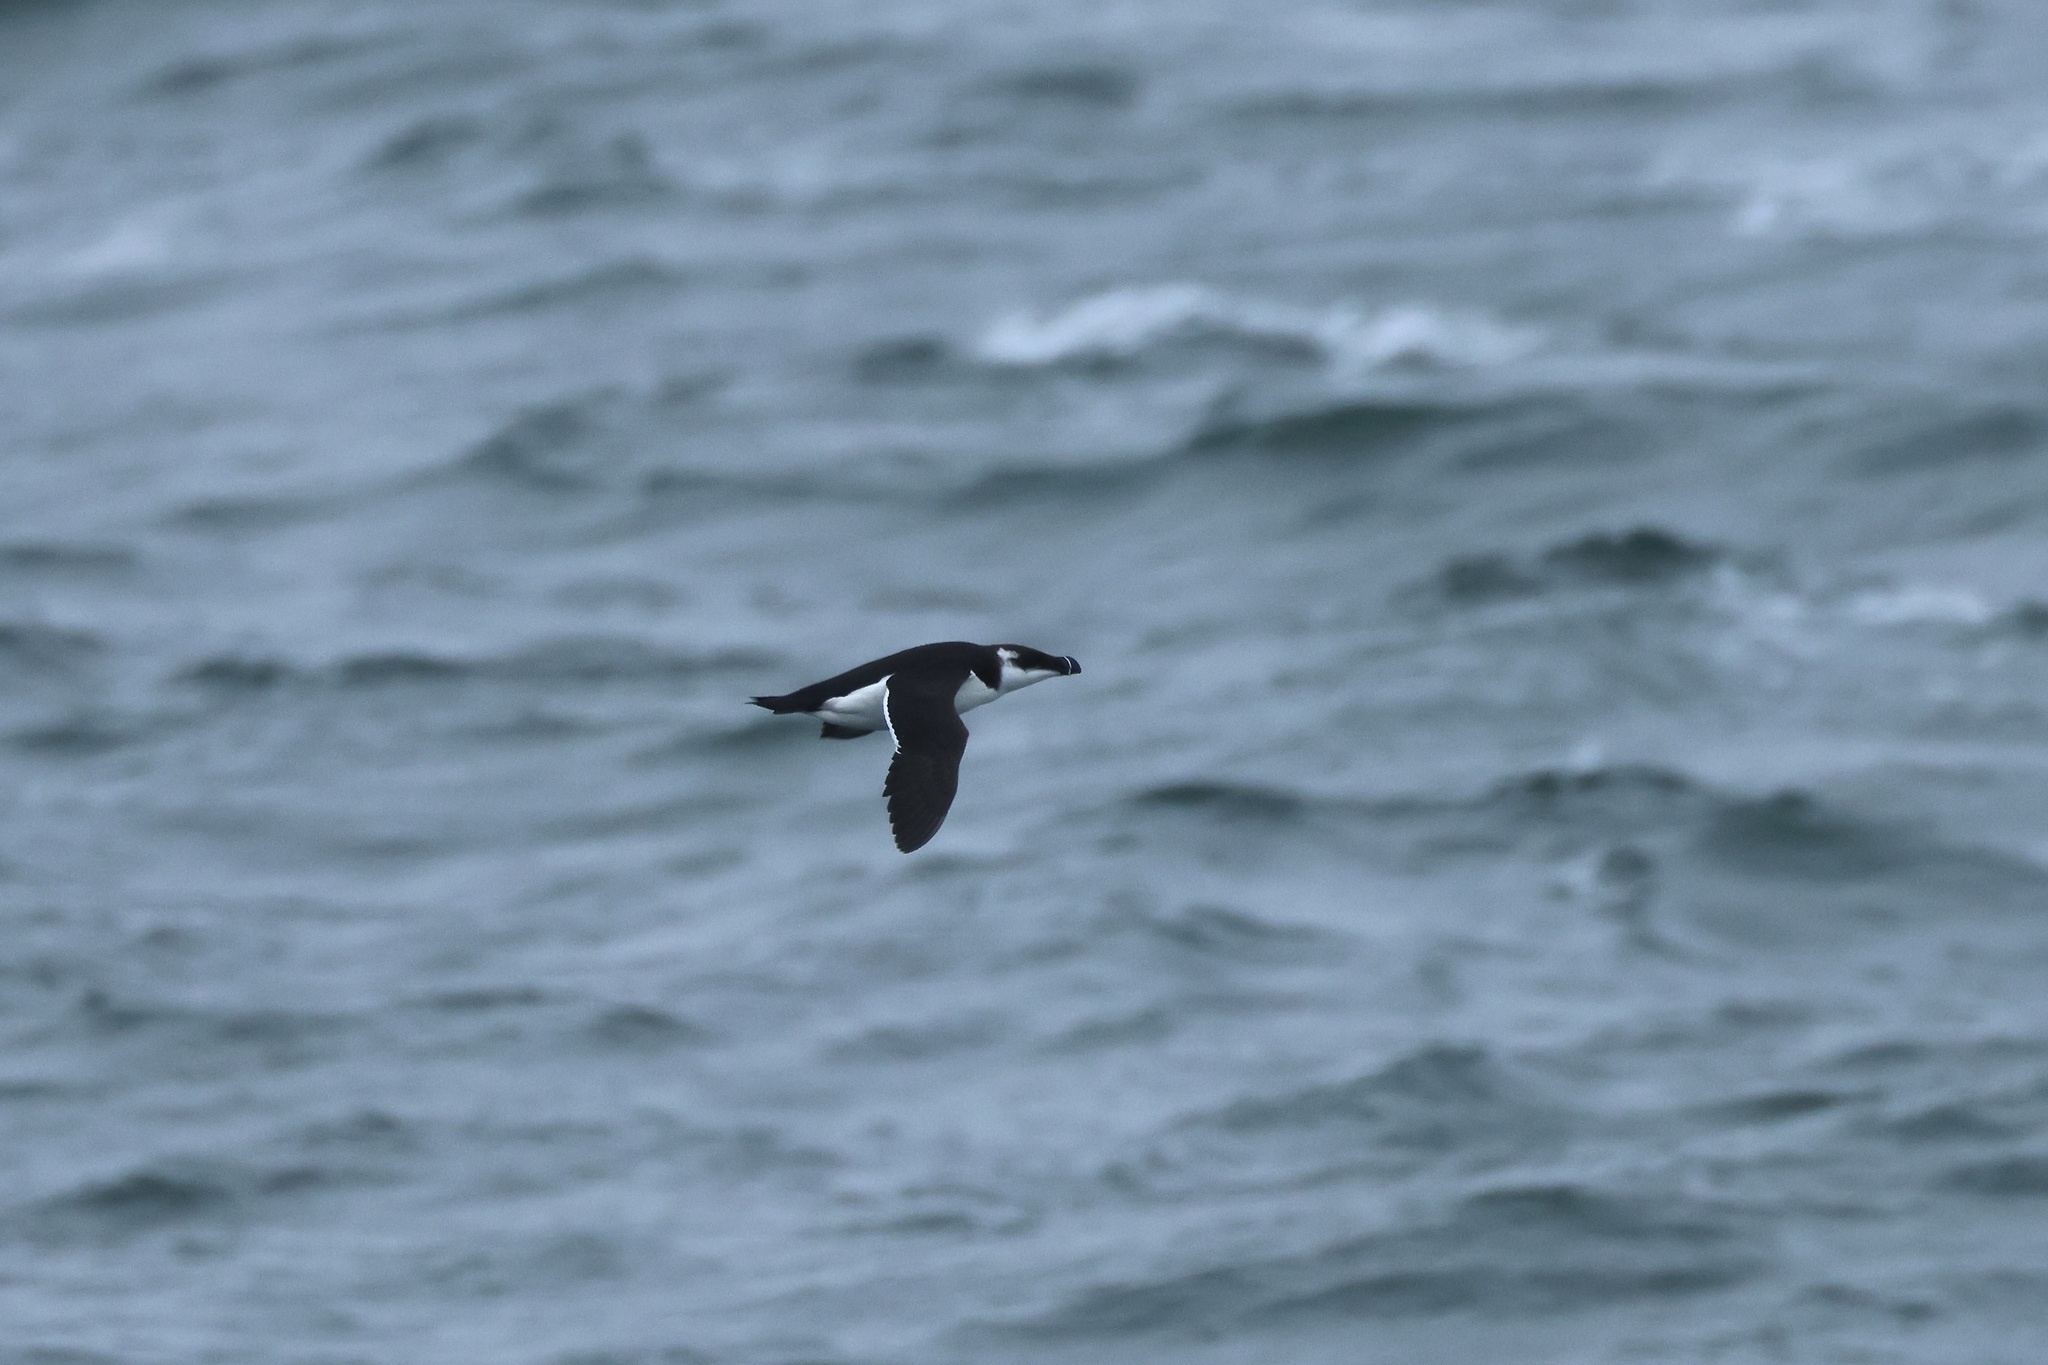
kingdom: Animalia
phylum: Chordata
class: Aves
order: Charadriiformes
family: Alcidae
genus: Alca
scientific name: Alca torda
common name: Razorbill
